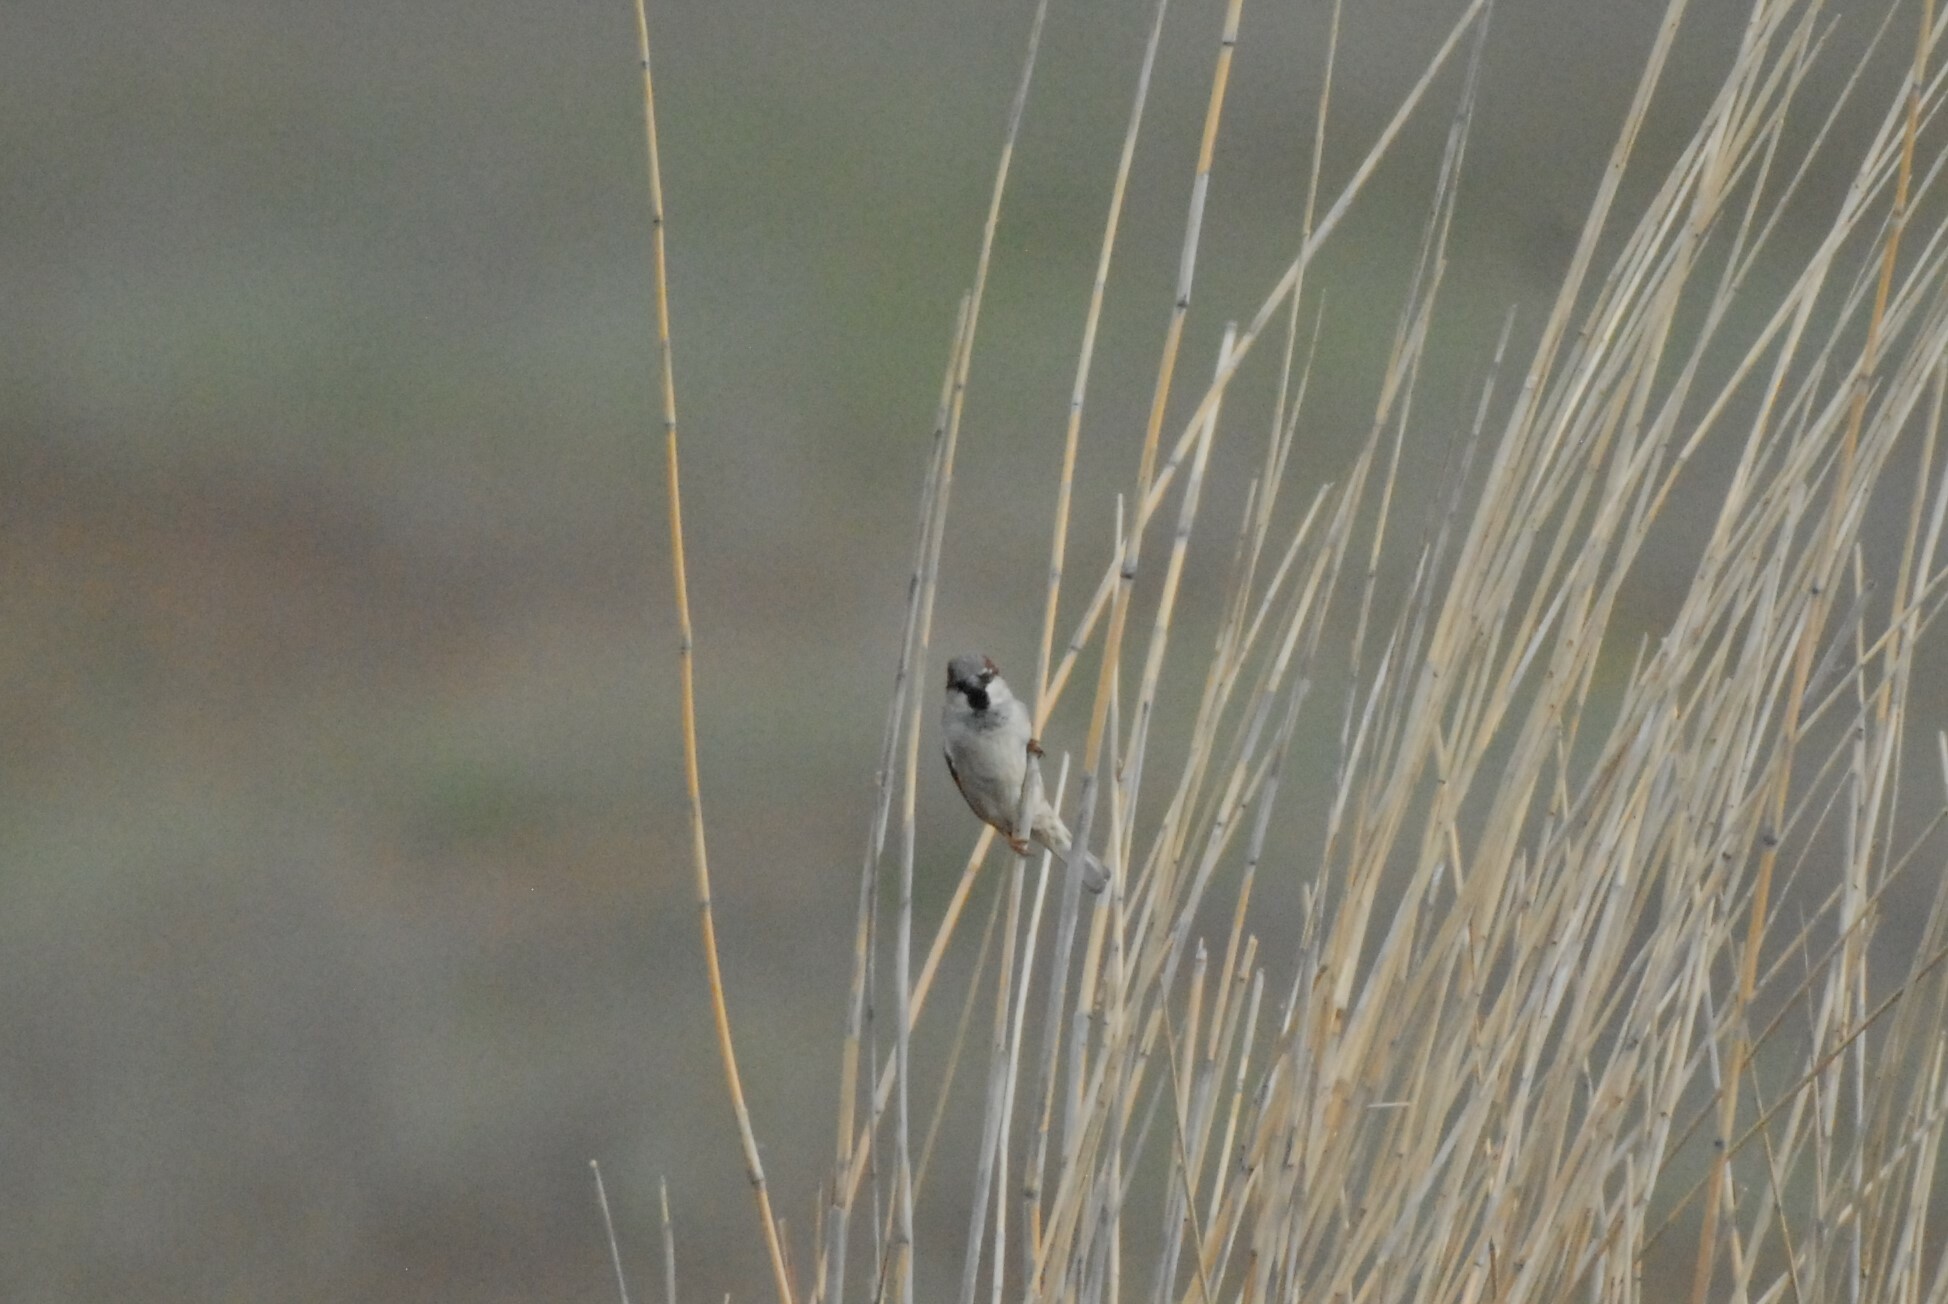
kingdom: Animalia
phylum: Chordata
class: Aves
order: Passeriformes
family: Passeridae
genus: Passer
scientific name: Passer domesticus
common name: House sparrow
